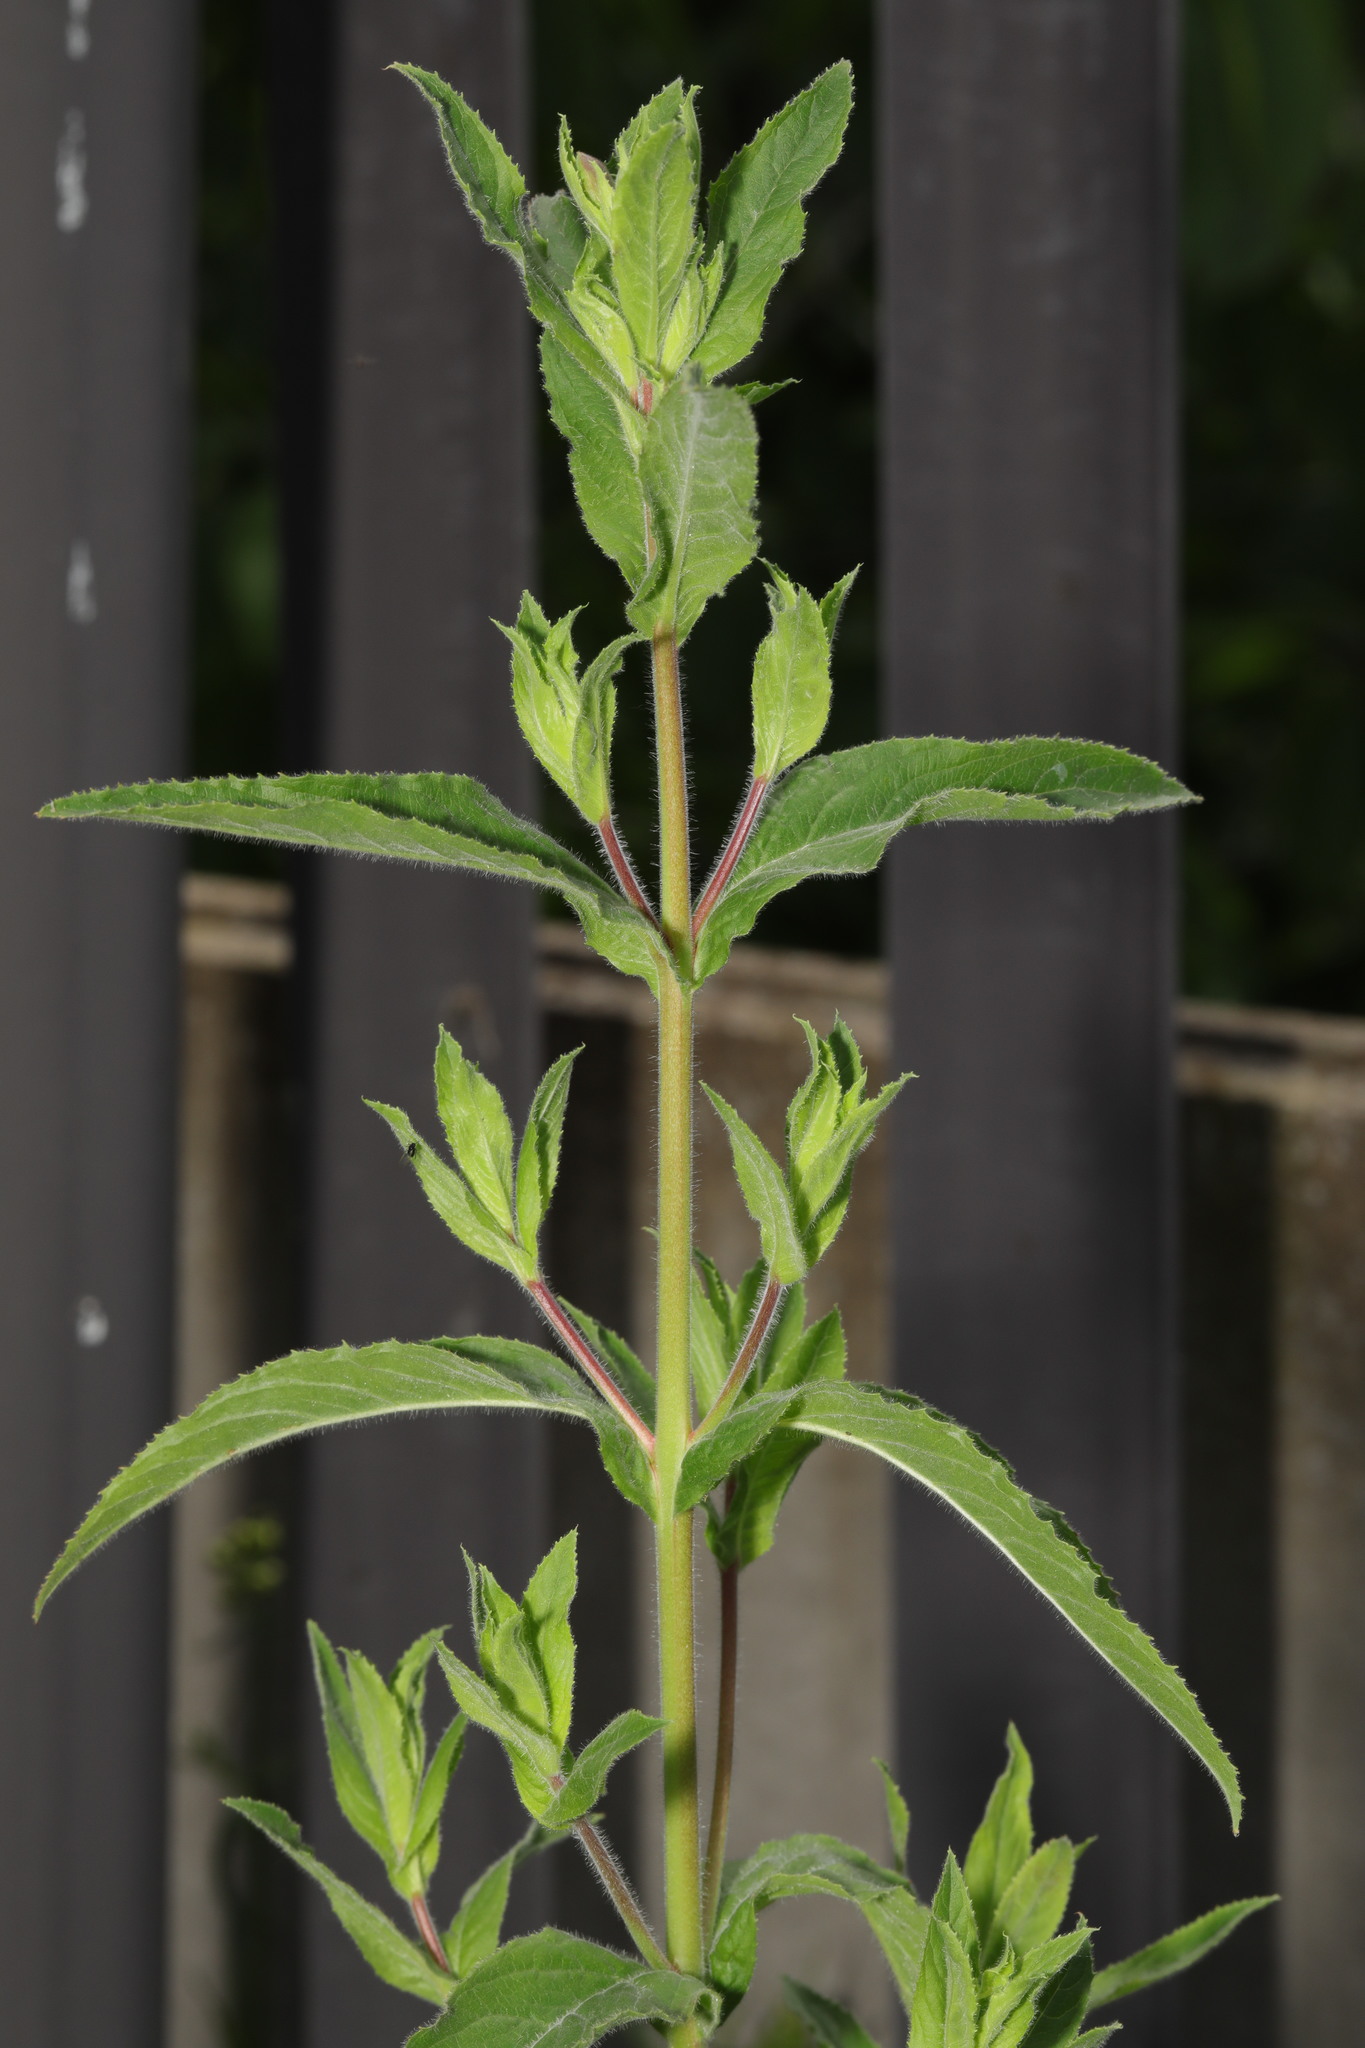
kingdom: Plantae
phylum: Tracheophyta
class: Magnoliopsida
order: Myrtales
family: Onagraceae
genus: Epilobium
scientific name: Epilobium hirsutum
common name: Great willowherb
